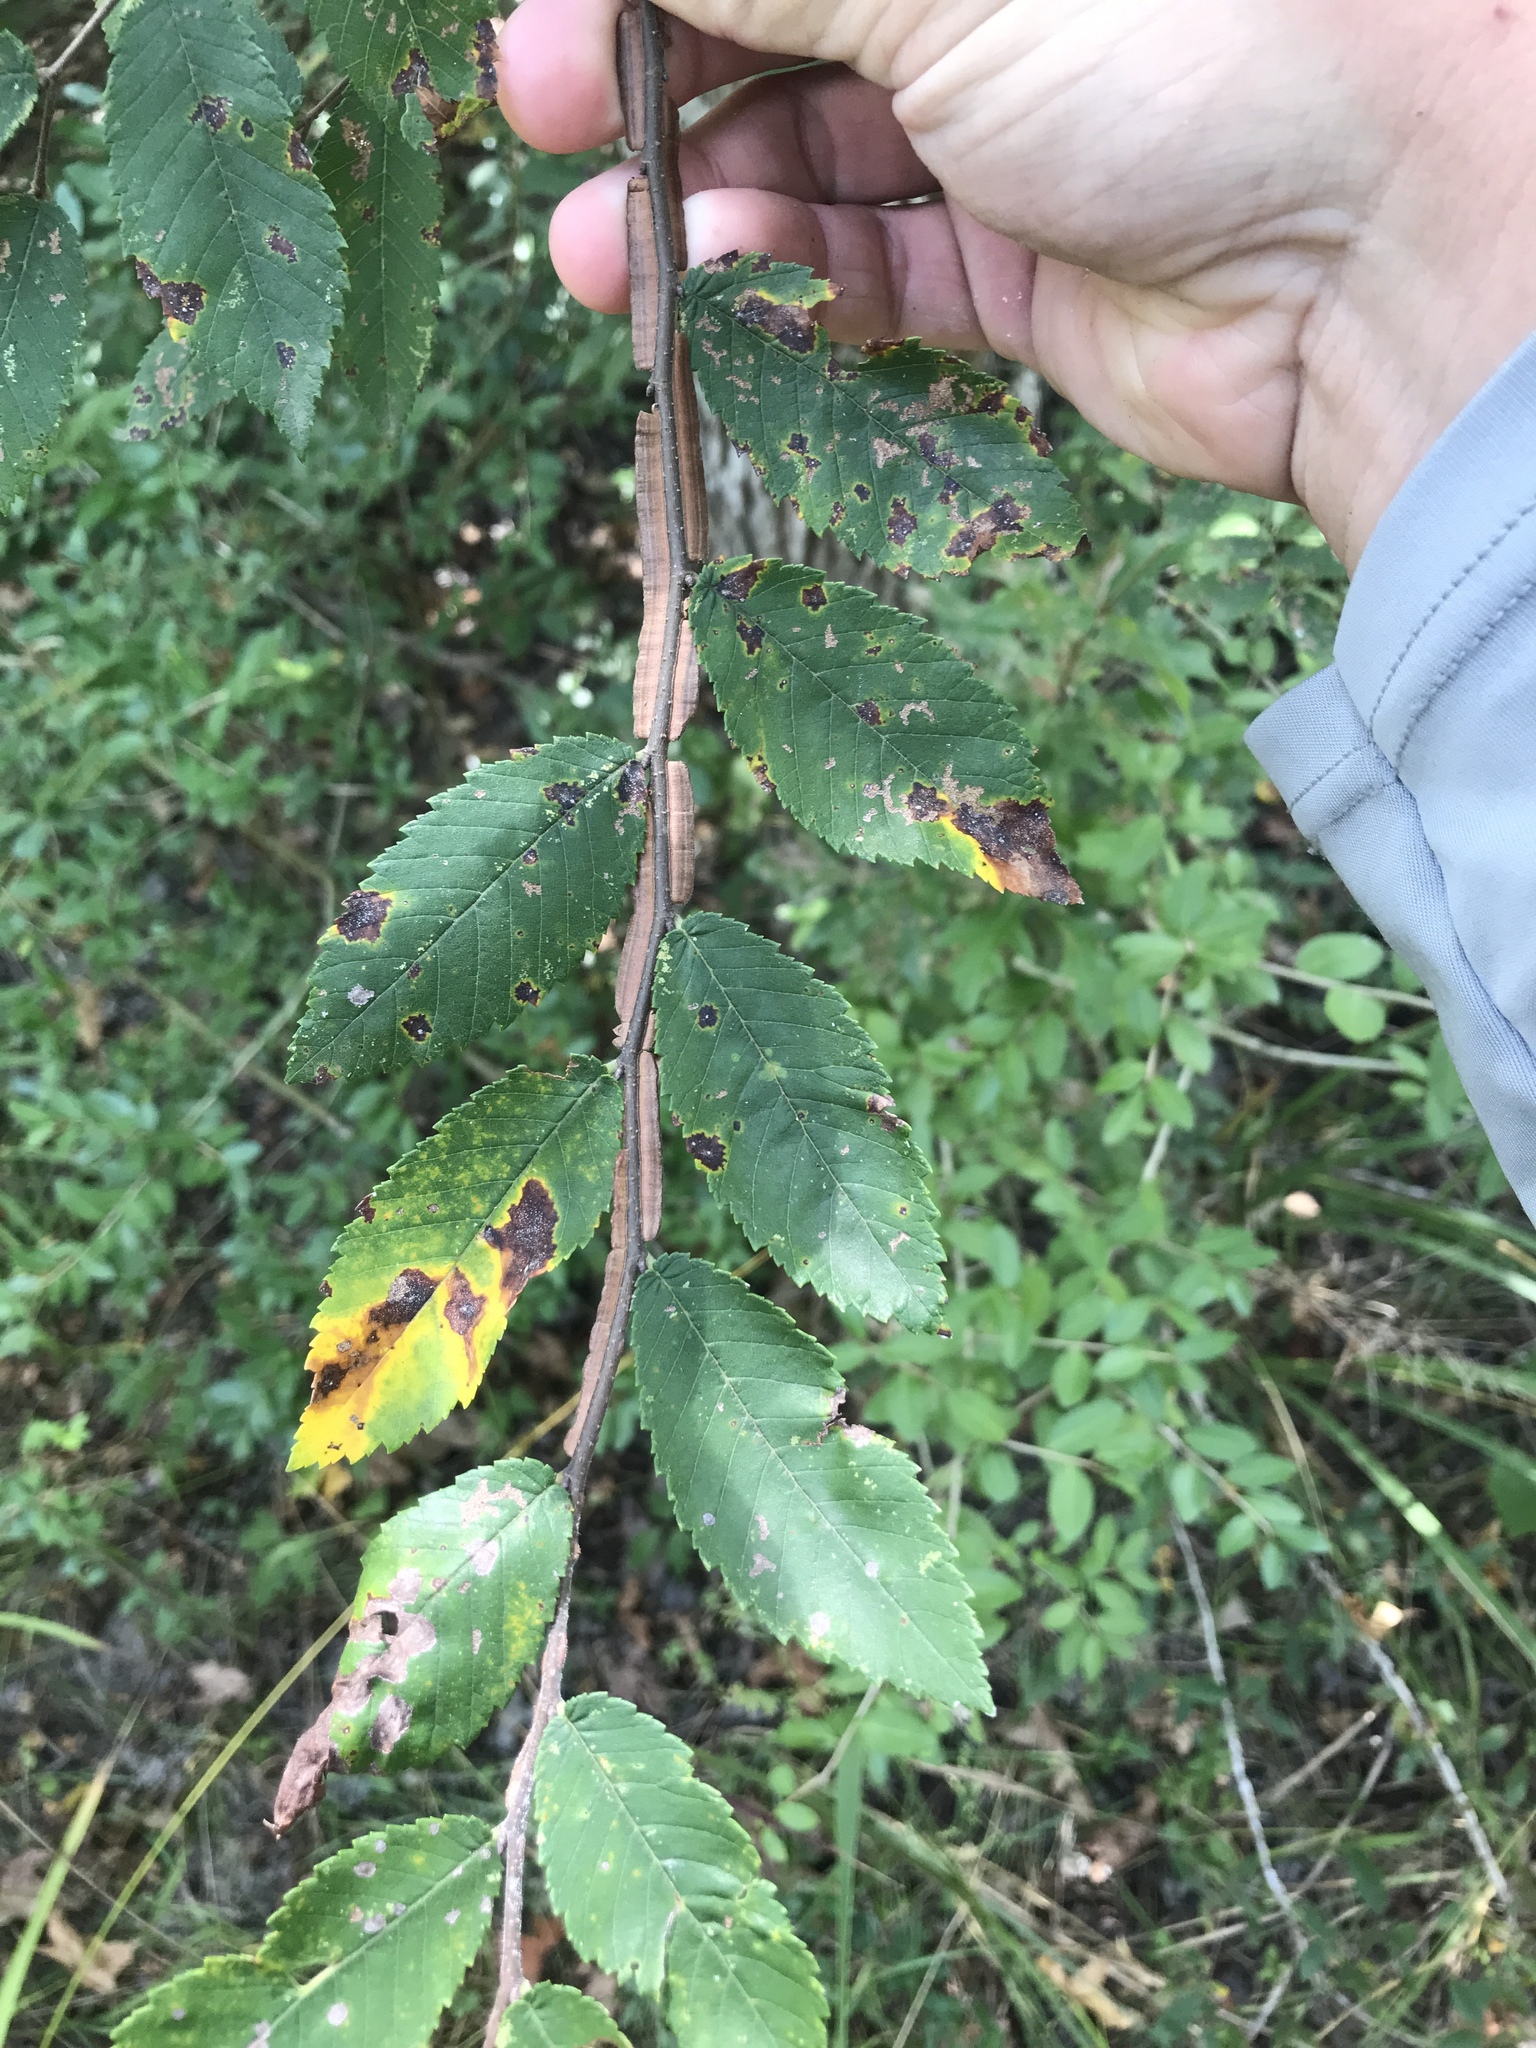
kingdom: Plantae
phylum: Tracheophyta
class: Magnoliopsida
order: Rosales
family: Ulmaceae
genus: Ulmus
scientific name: Ulmus alata
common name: Winged elm
